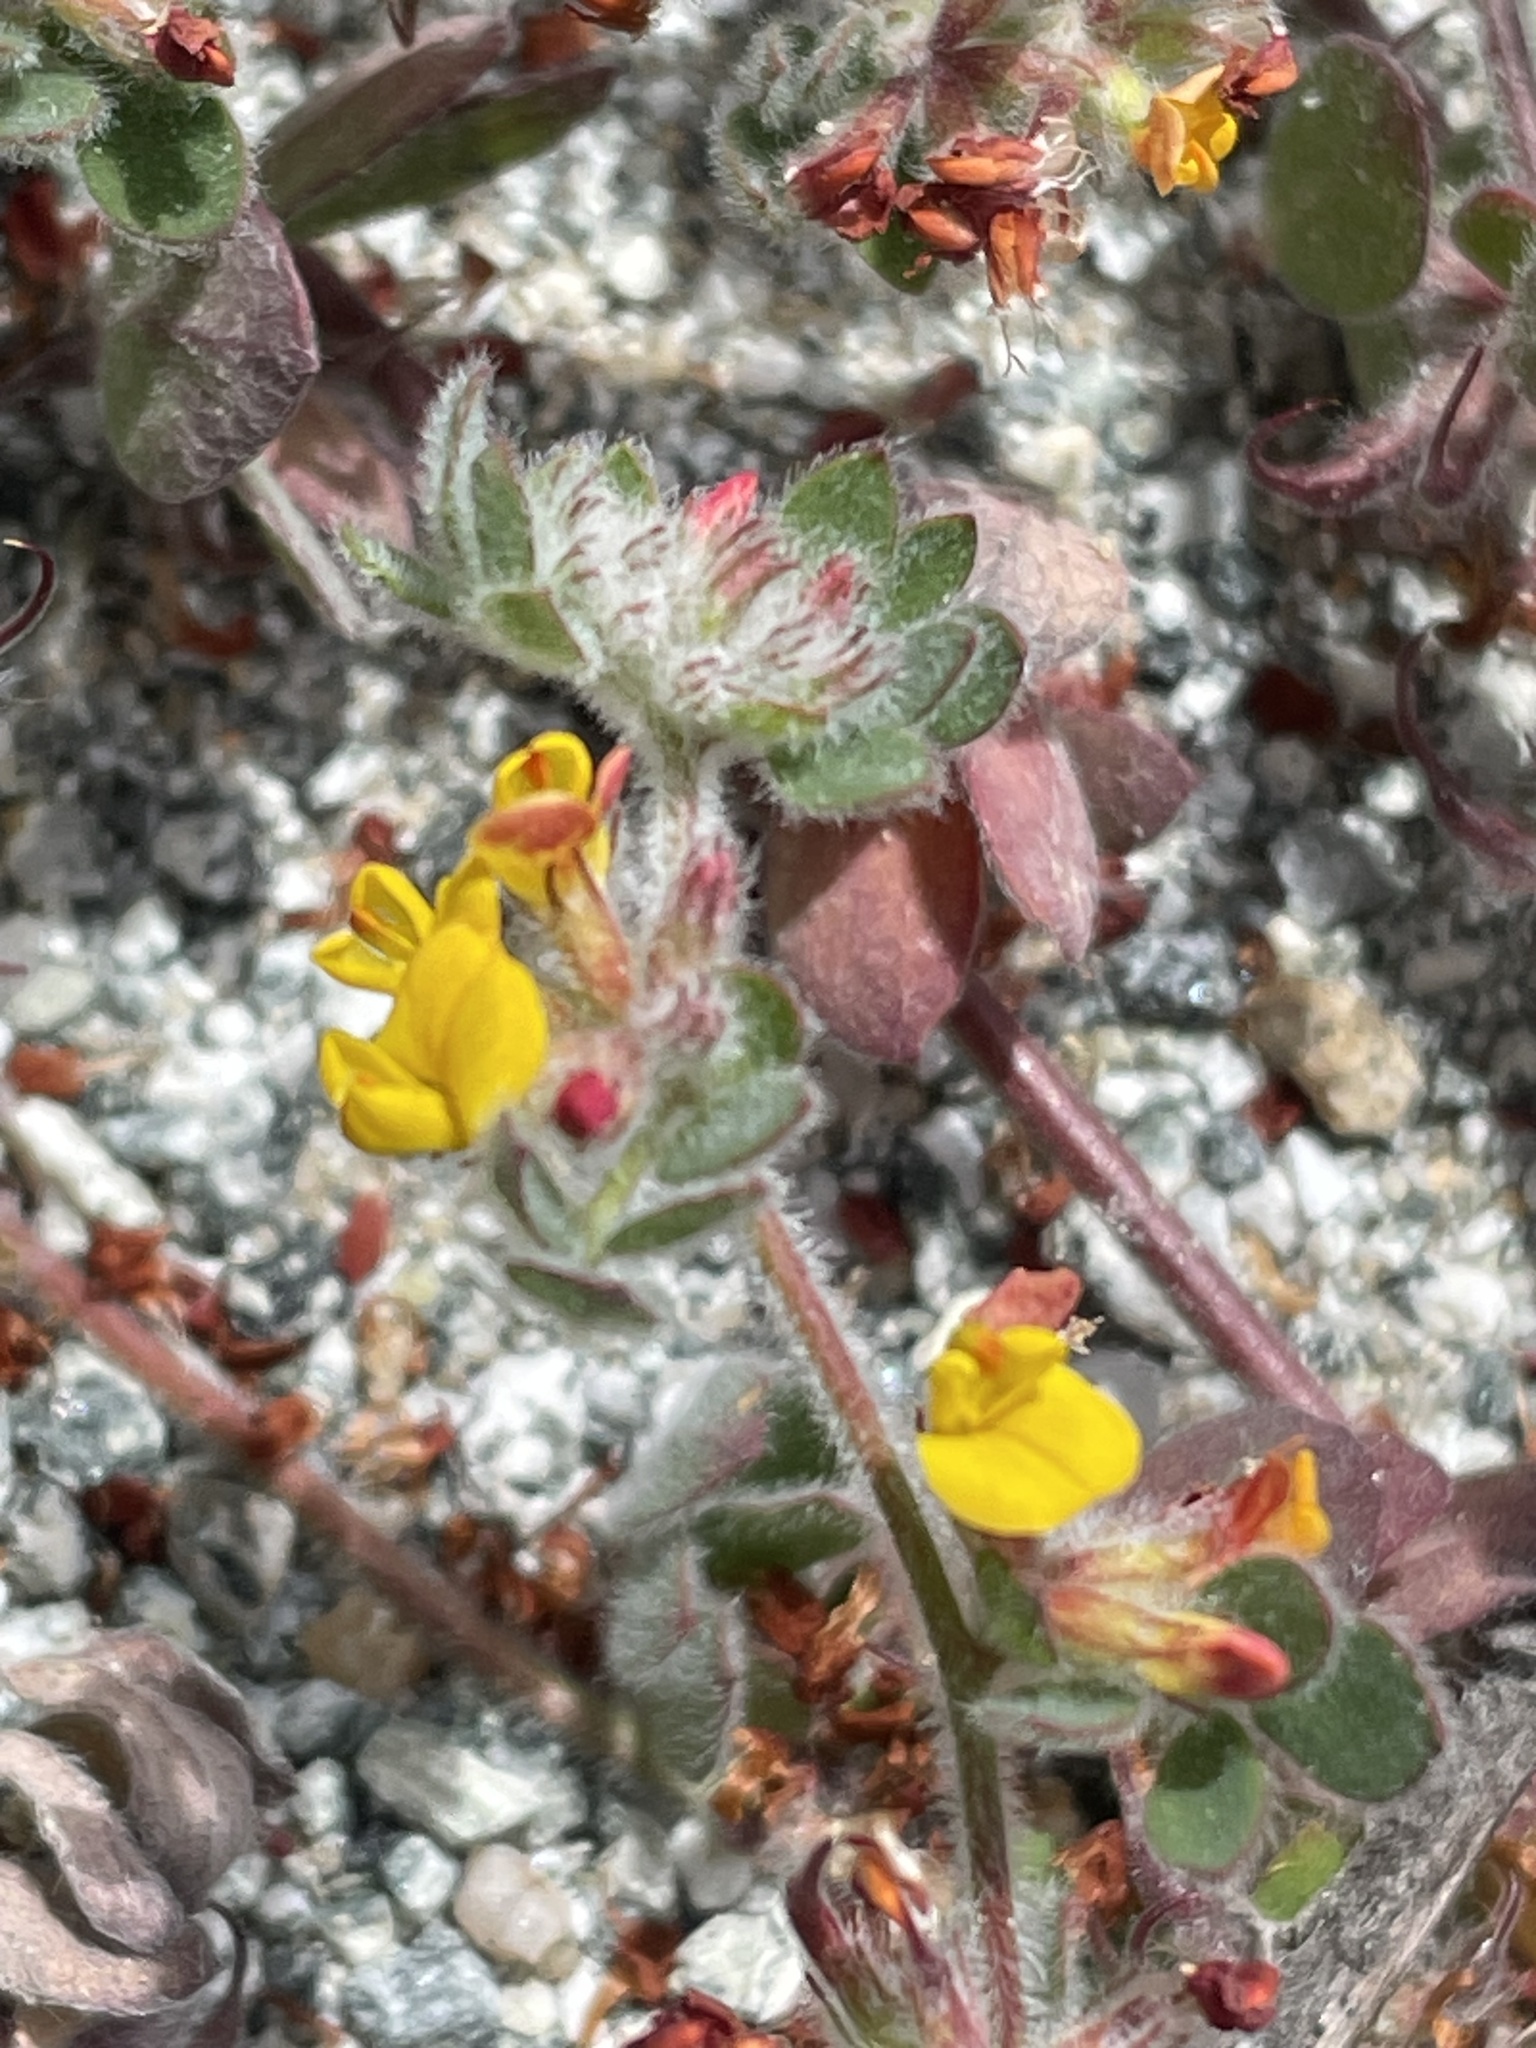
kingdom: Plantae
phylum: Tracheophyta
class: Magnoliopsida
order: Fabales
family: Fabaceae
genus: Acmispon
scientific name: Acmispon tomentosus
